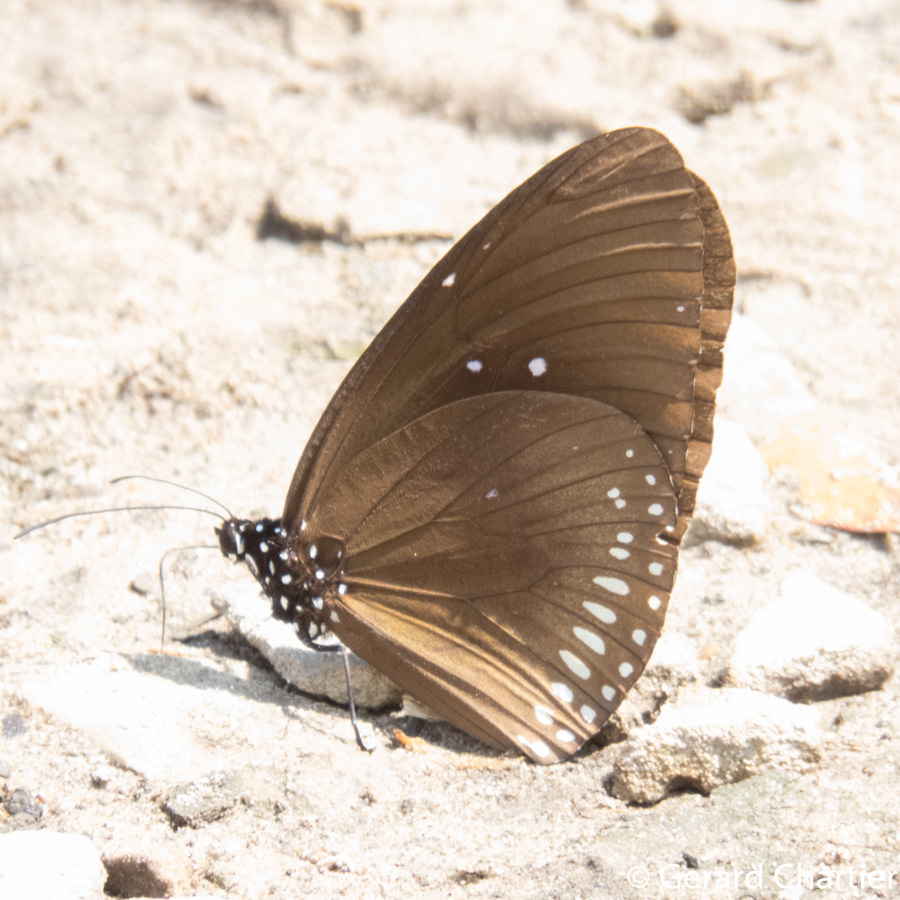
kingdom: Animalia
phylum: Arthropoda
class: Insecta
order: Lepidoptera
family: Nymphalidae
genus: Euploea
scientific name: Euploea midamus
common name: Blue-spotted crow butterfly
